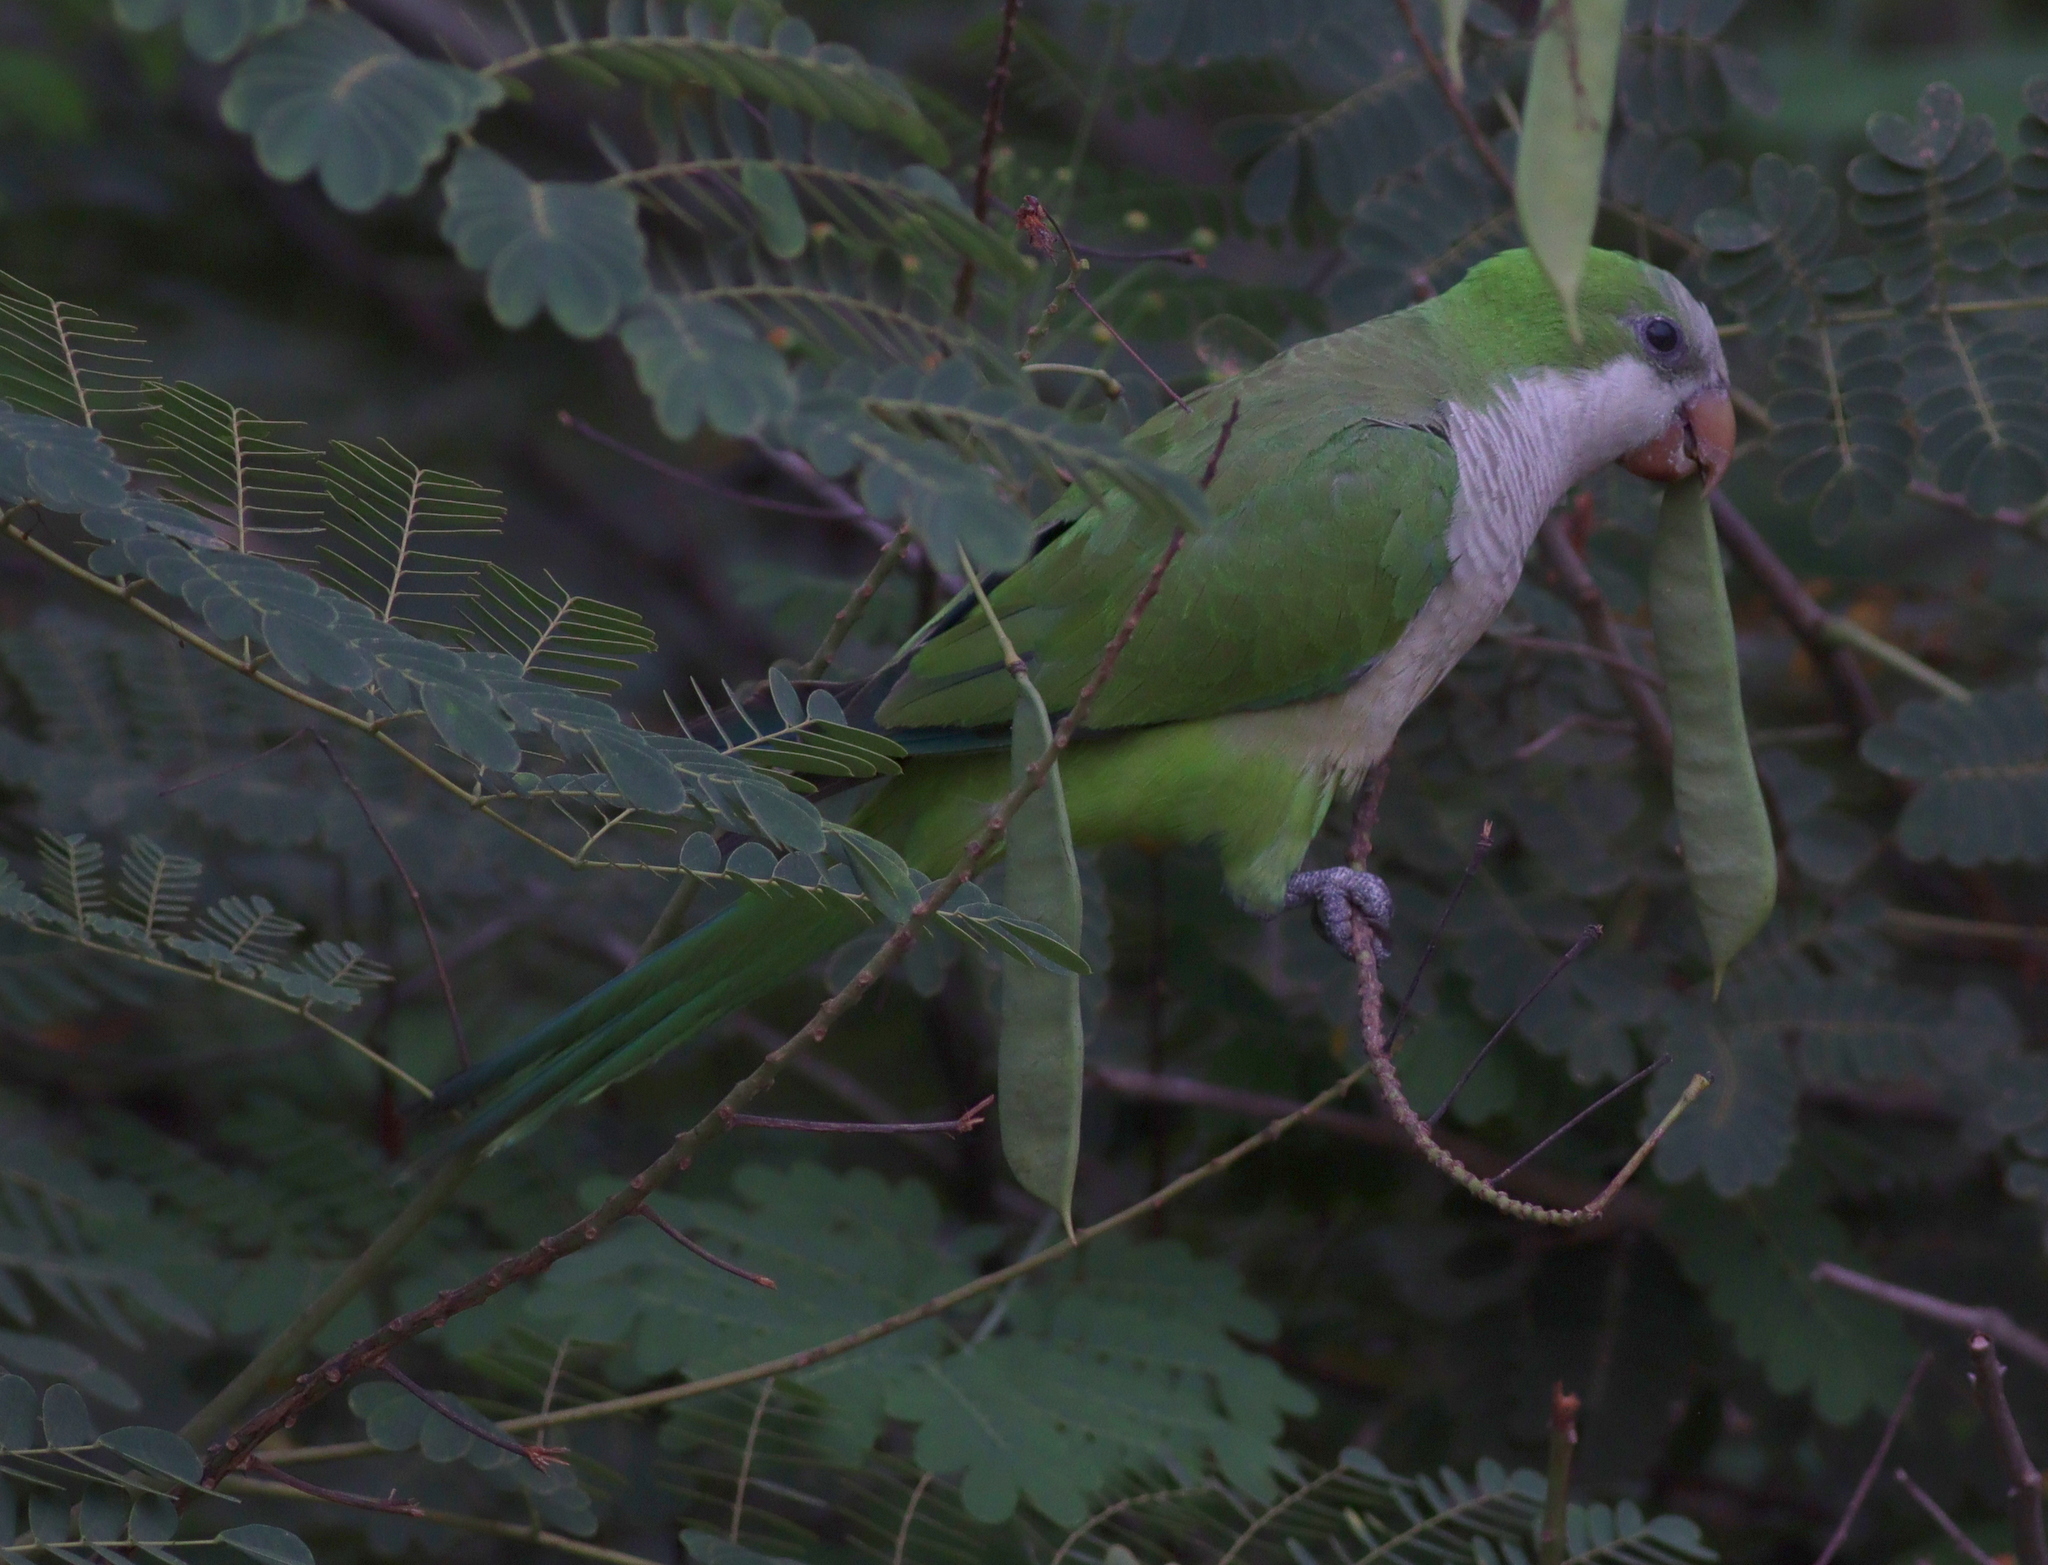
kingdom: Animalia
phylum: Chordata
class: Aves
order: Psittaciformes
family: Psittacidae
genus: Myiopsitta
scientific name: Myiopsitta monachus
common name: Monk parakeet
